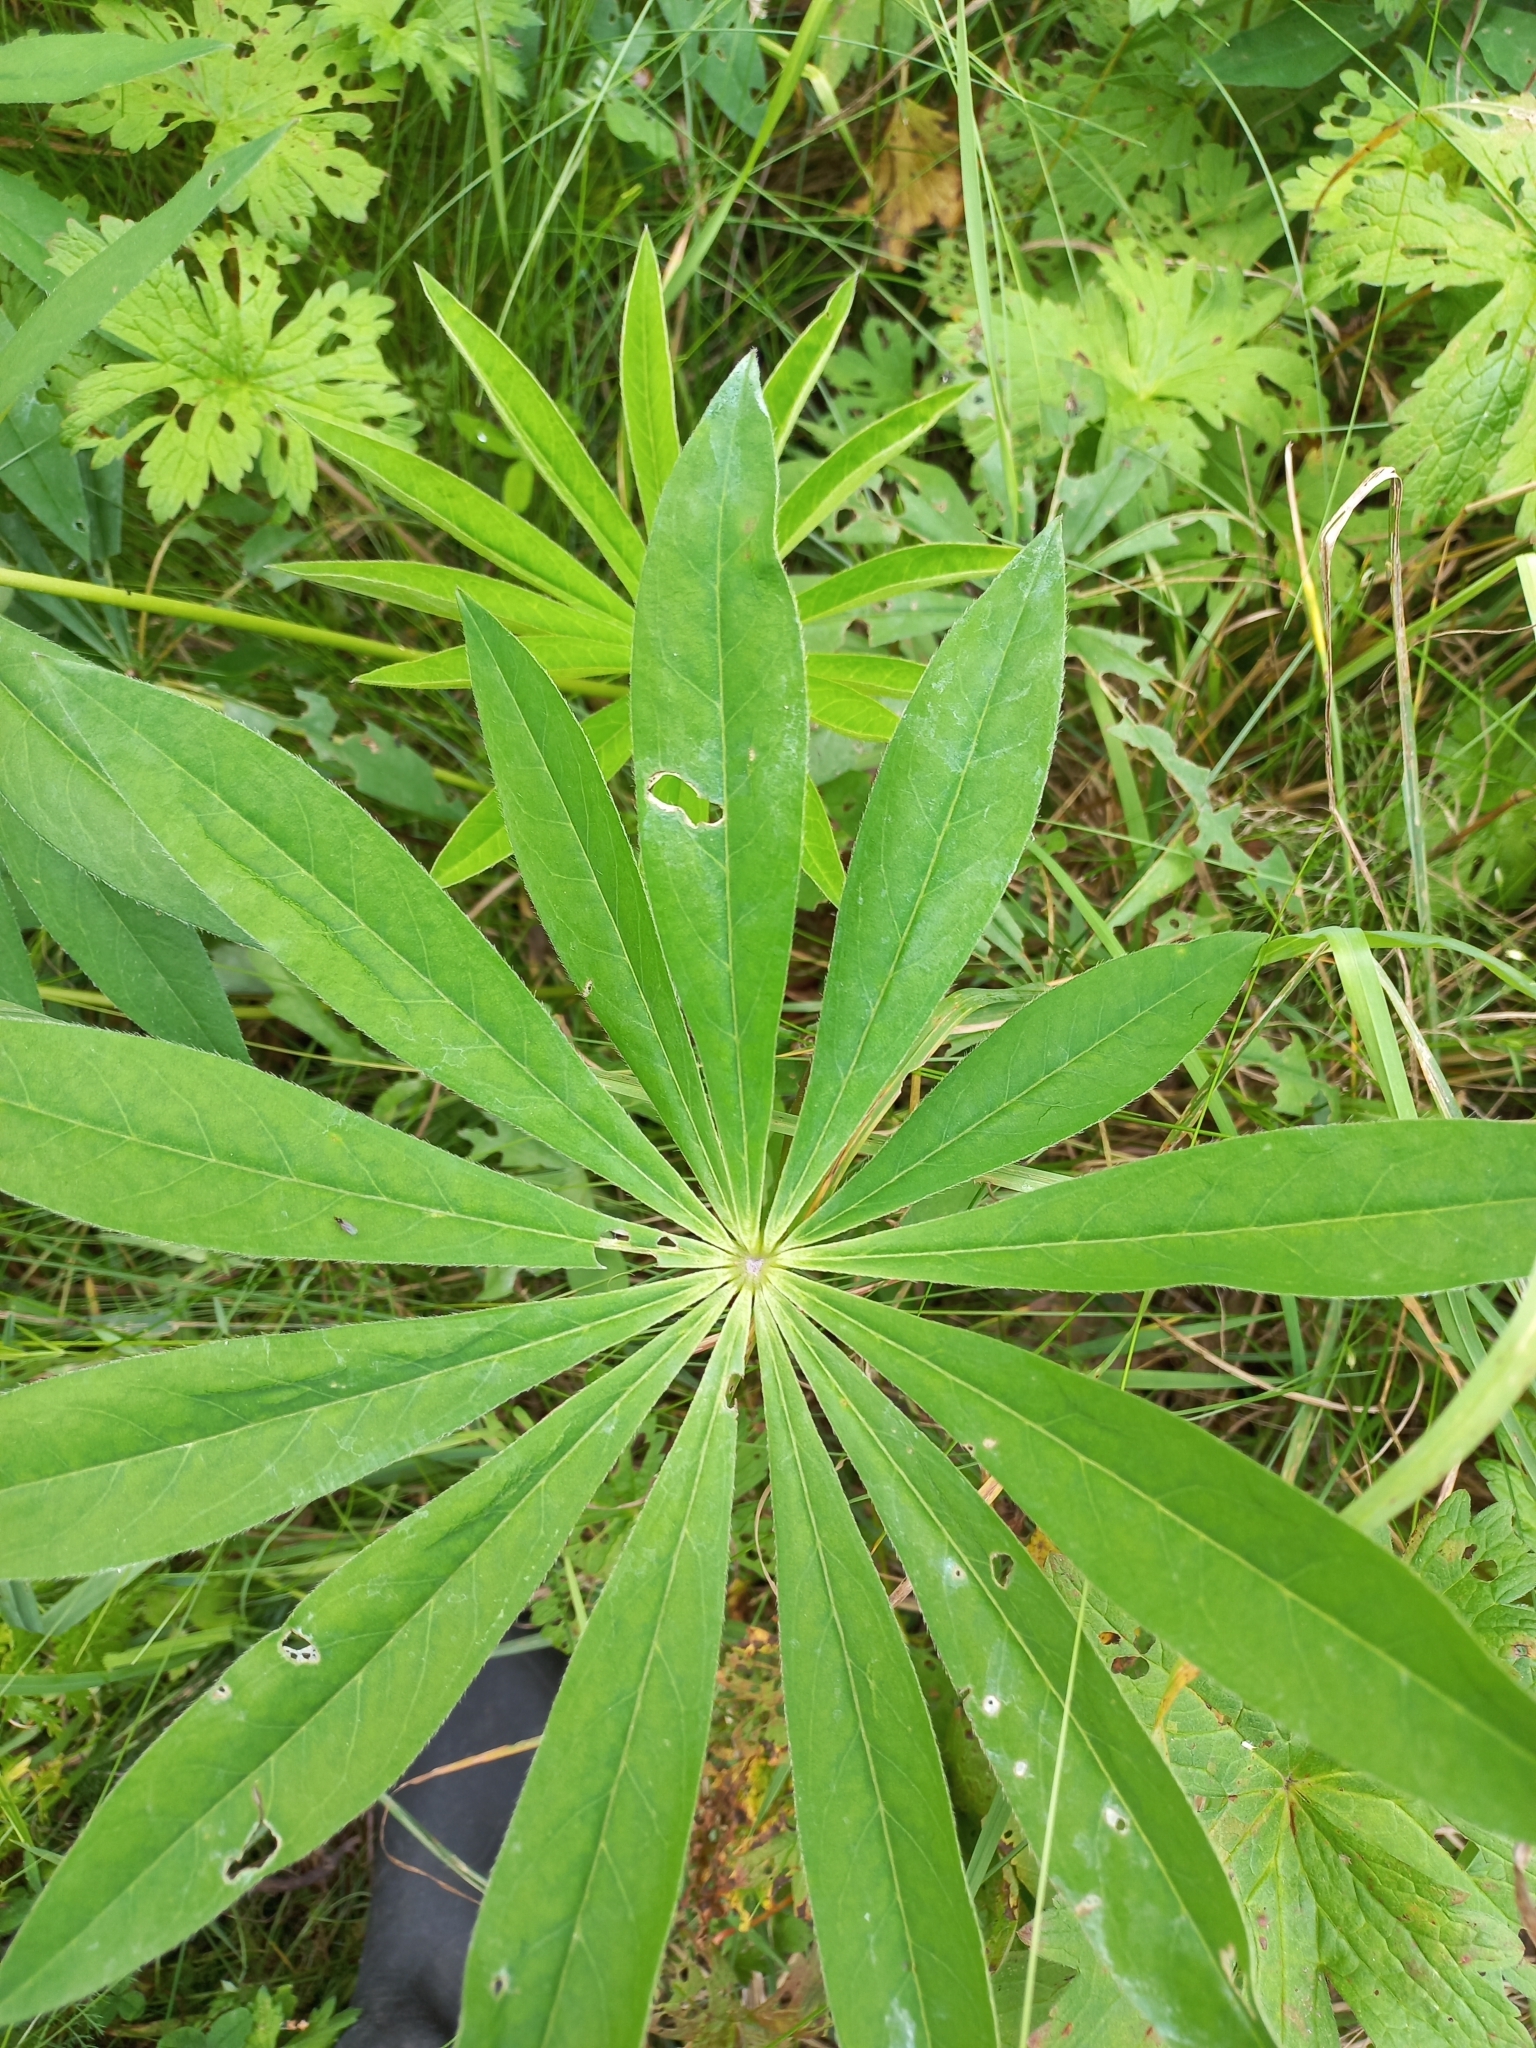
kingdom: Plantae
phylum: Tracheophyta
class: Magnoliopsida
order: Fabales
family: Fabaceae
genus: Lupinus
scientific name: Lupinus polyphyllus
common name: Garden lupin
